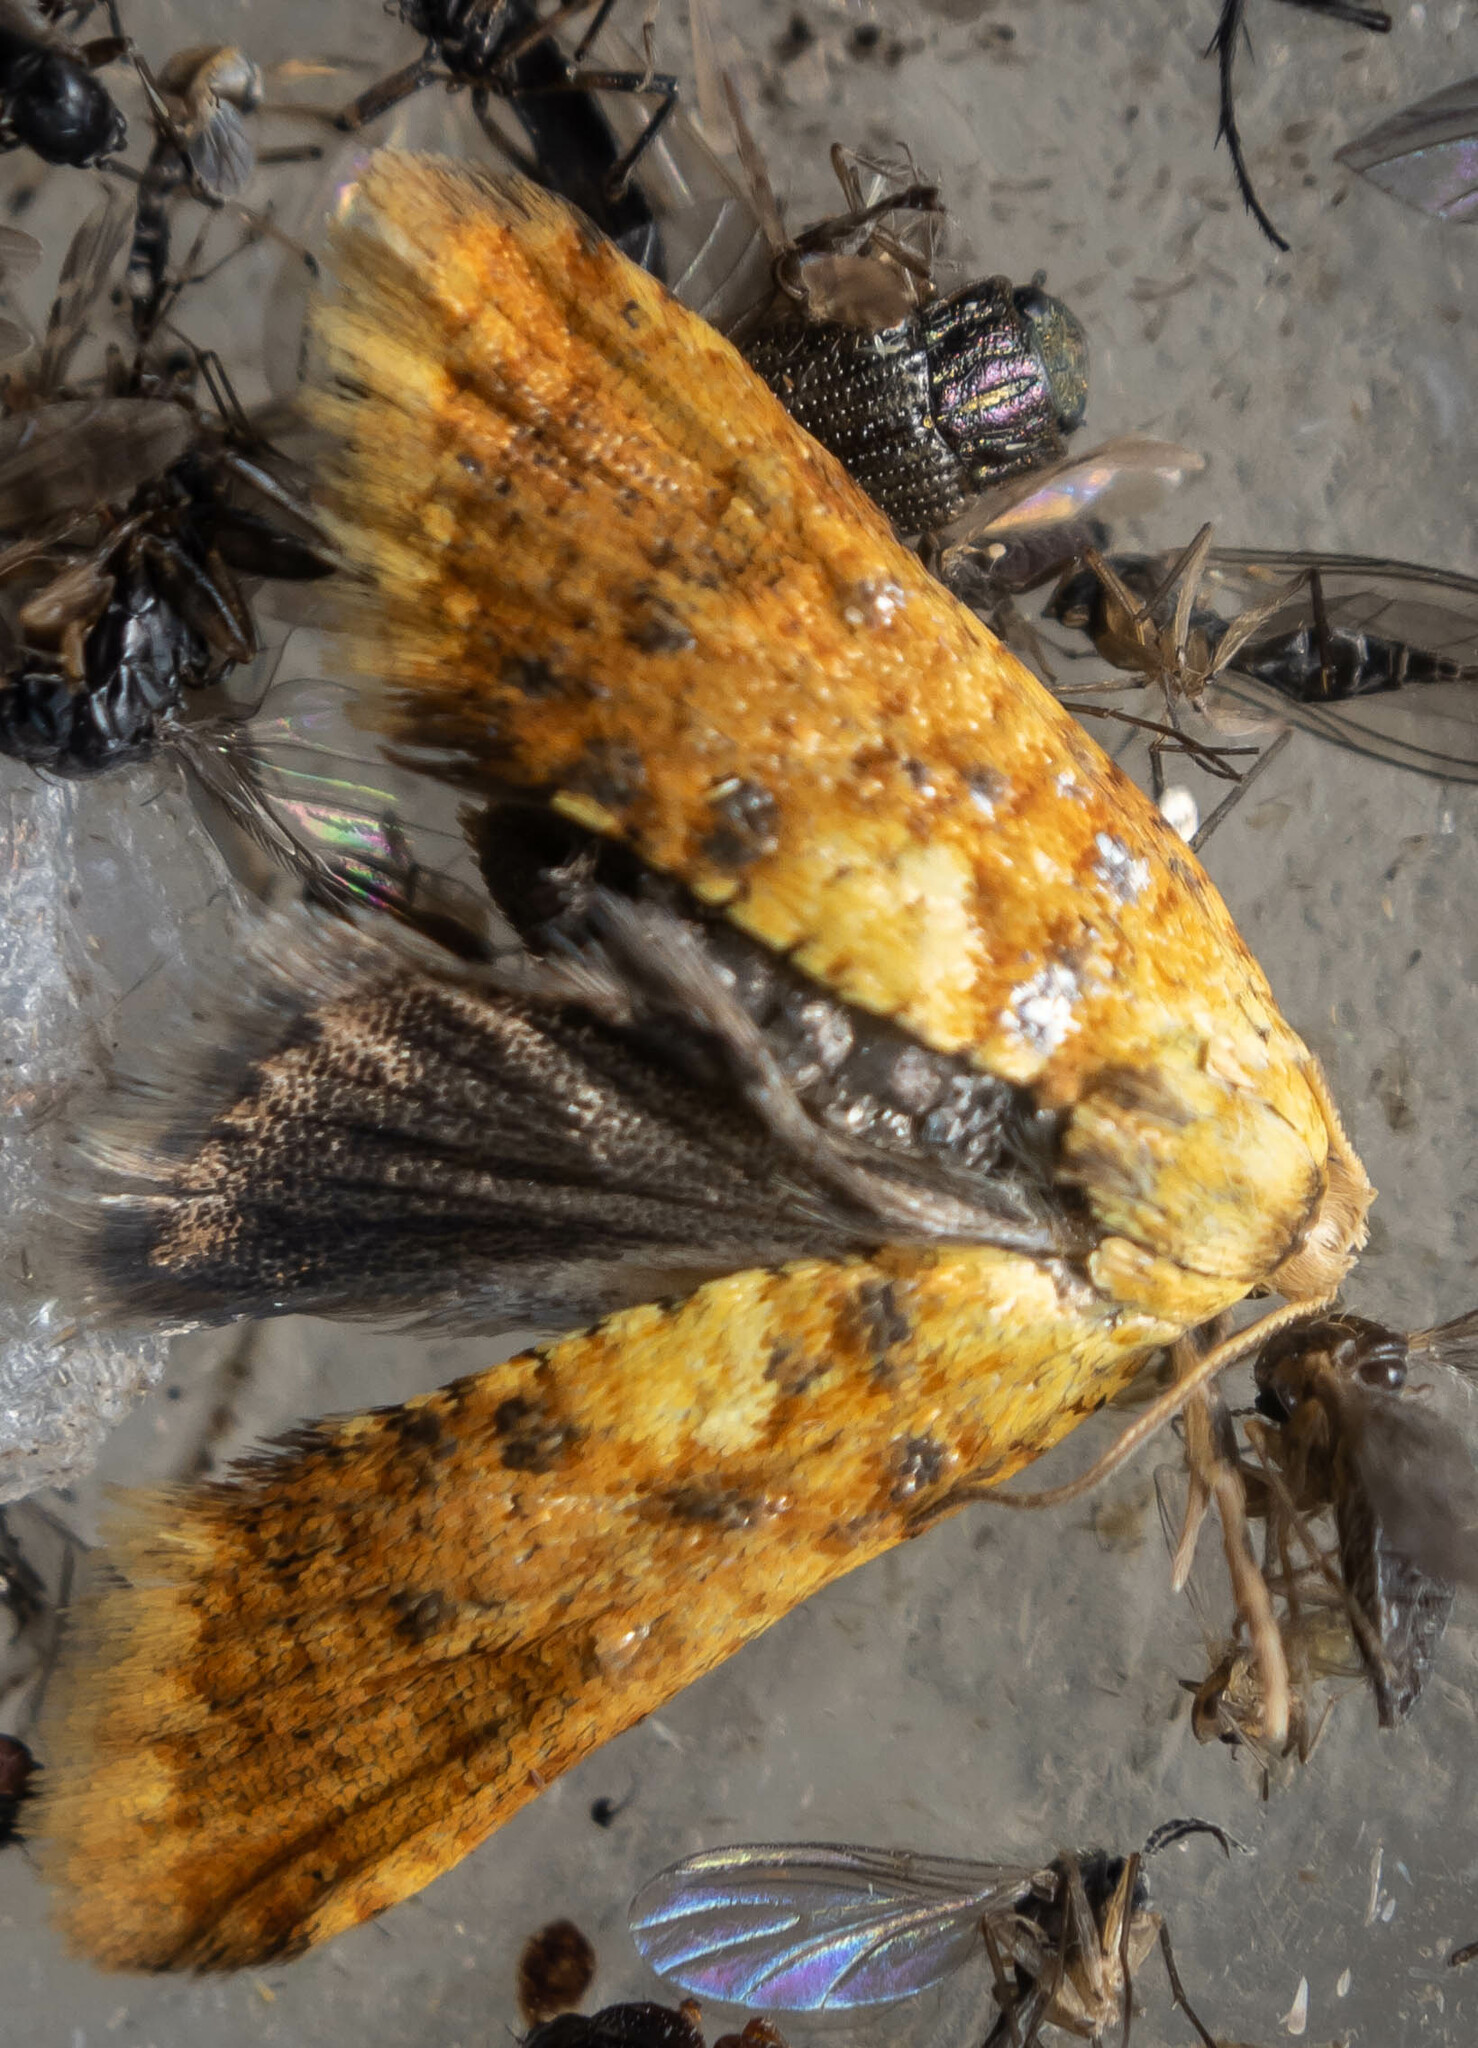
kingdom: Animalia
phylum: Arthropoda
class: Insecta
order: Lepidoptera
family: Tortricidae
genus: Pseudargyrotoza
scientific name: Pseudargyrotoza conwagana
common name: Yellow-spot twist
